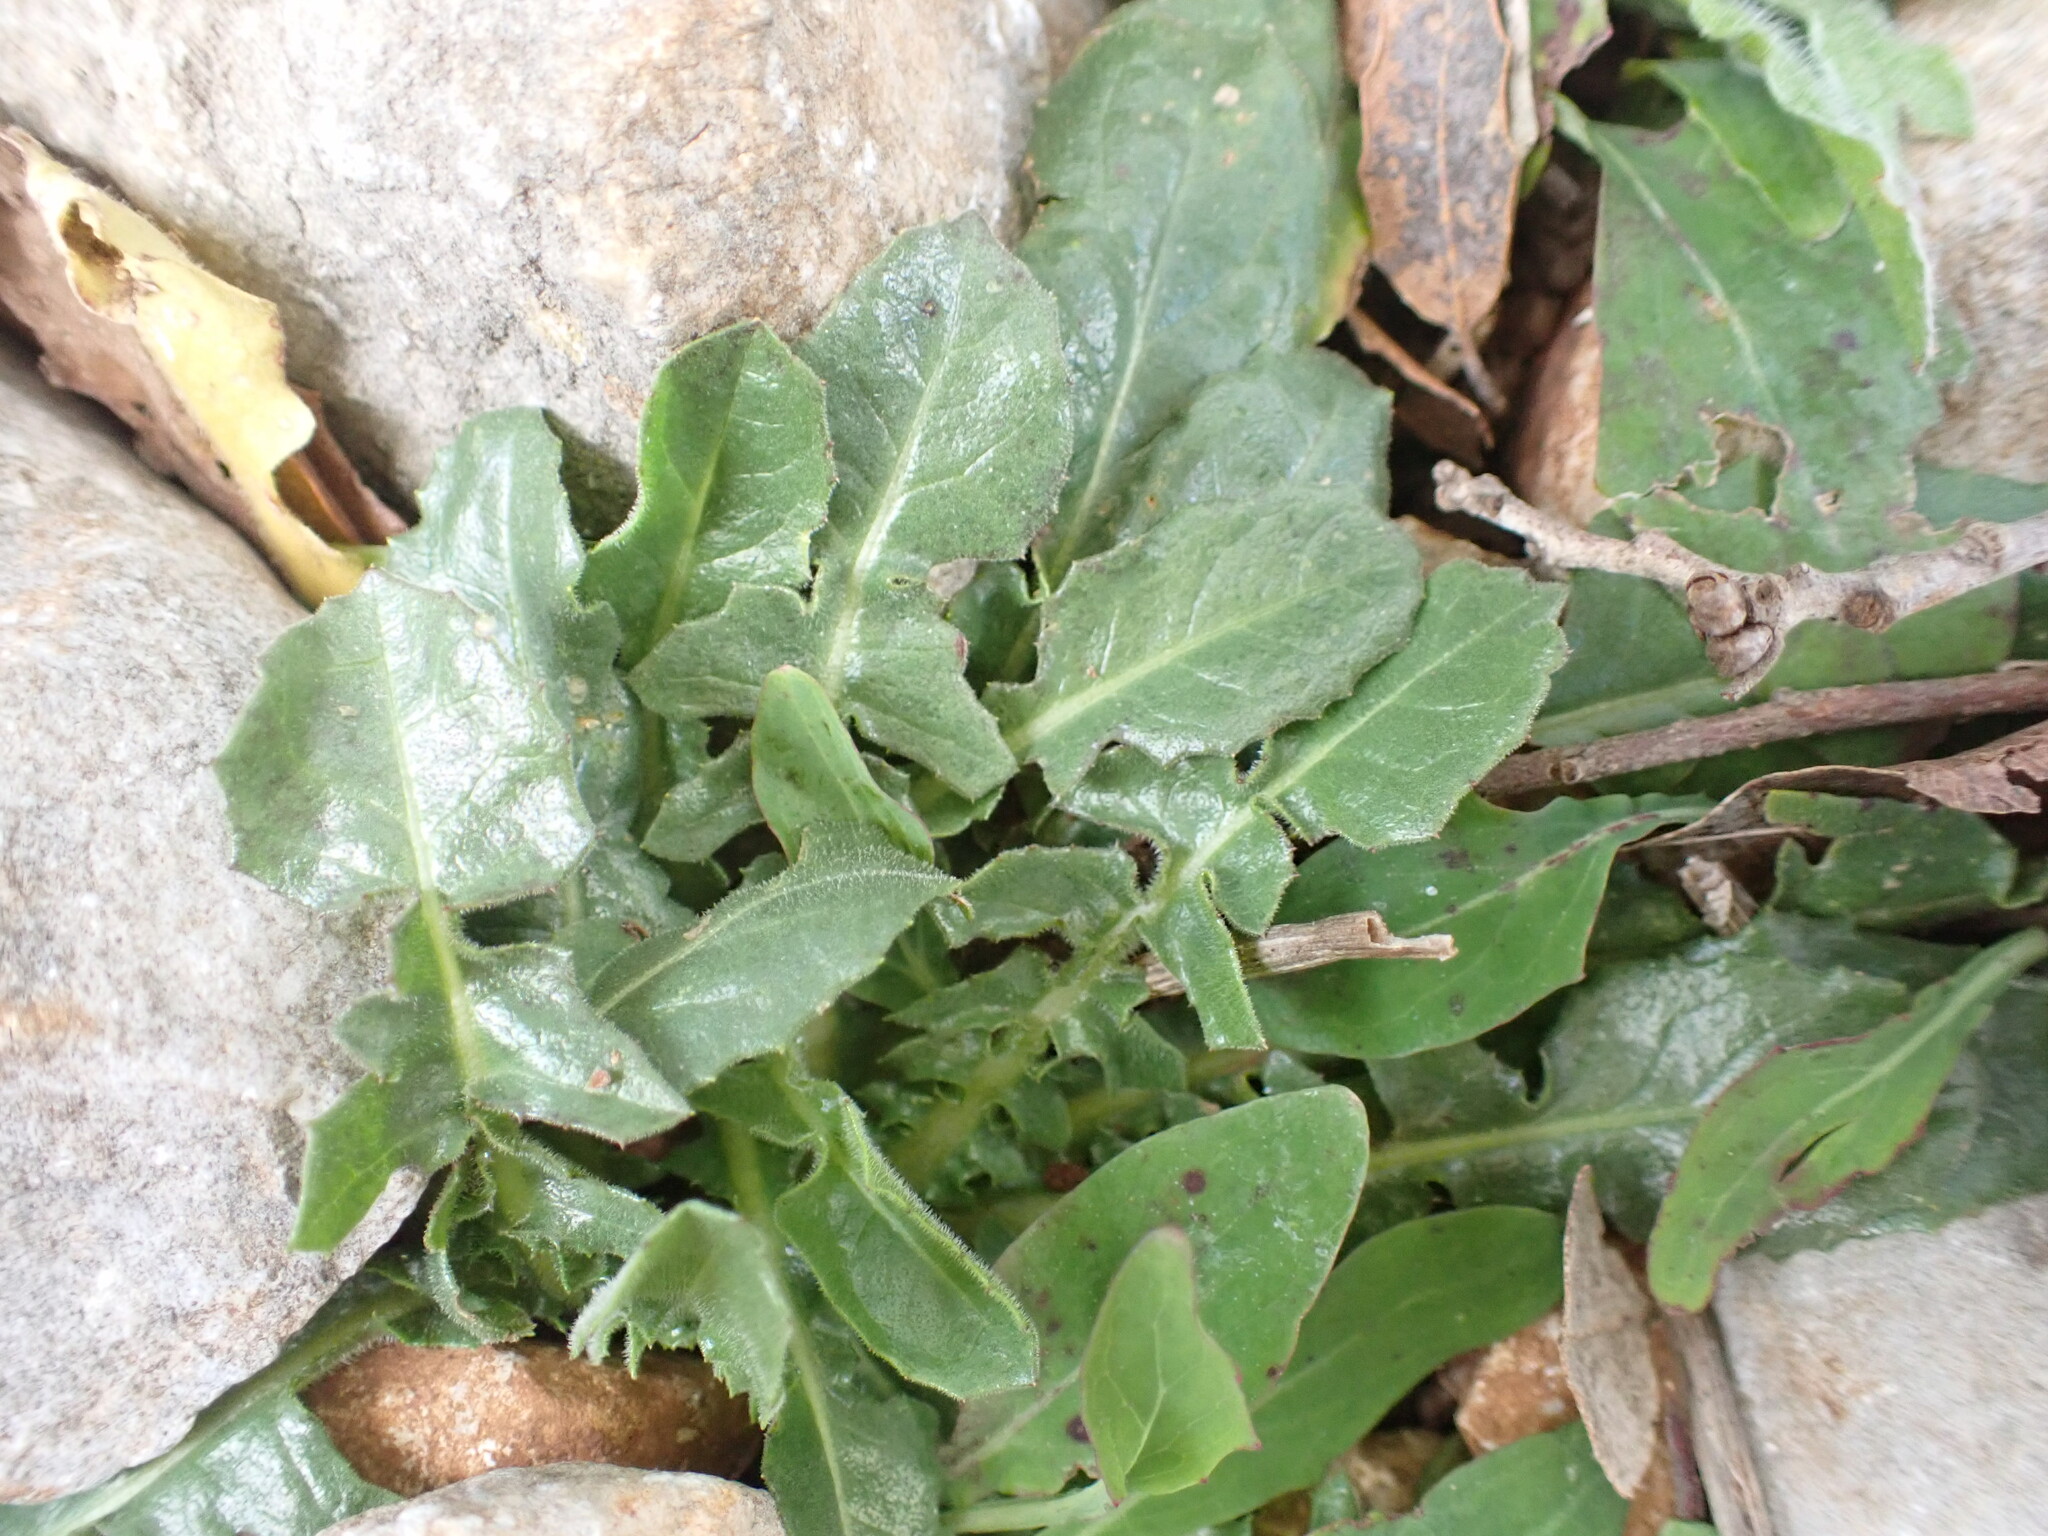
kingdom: Plantae
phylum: Tracheophyta
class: Magnoliopsida
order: Asterales
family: Asteraceae
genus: Urospermum
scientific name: Urospermum dalechampii
